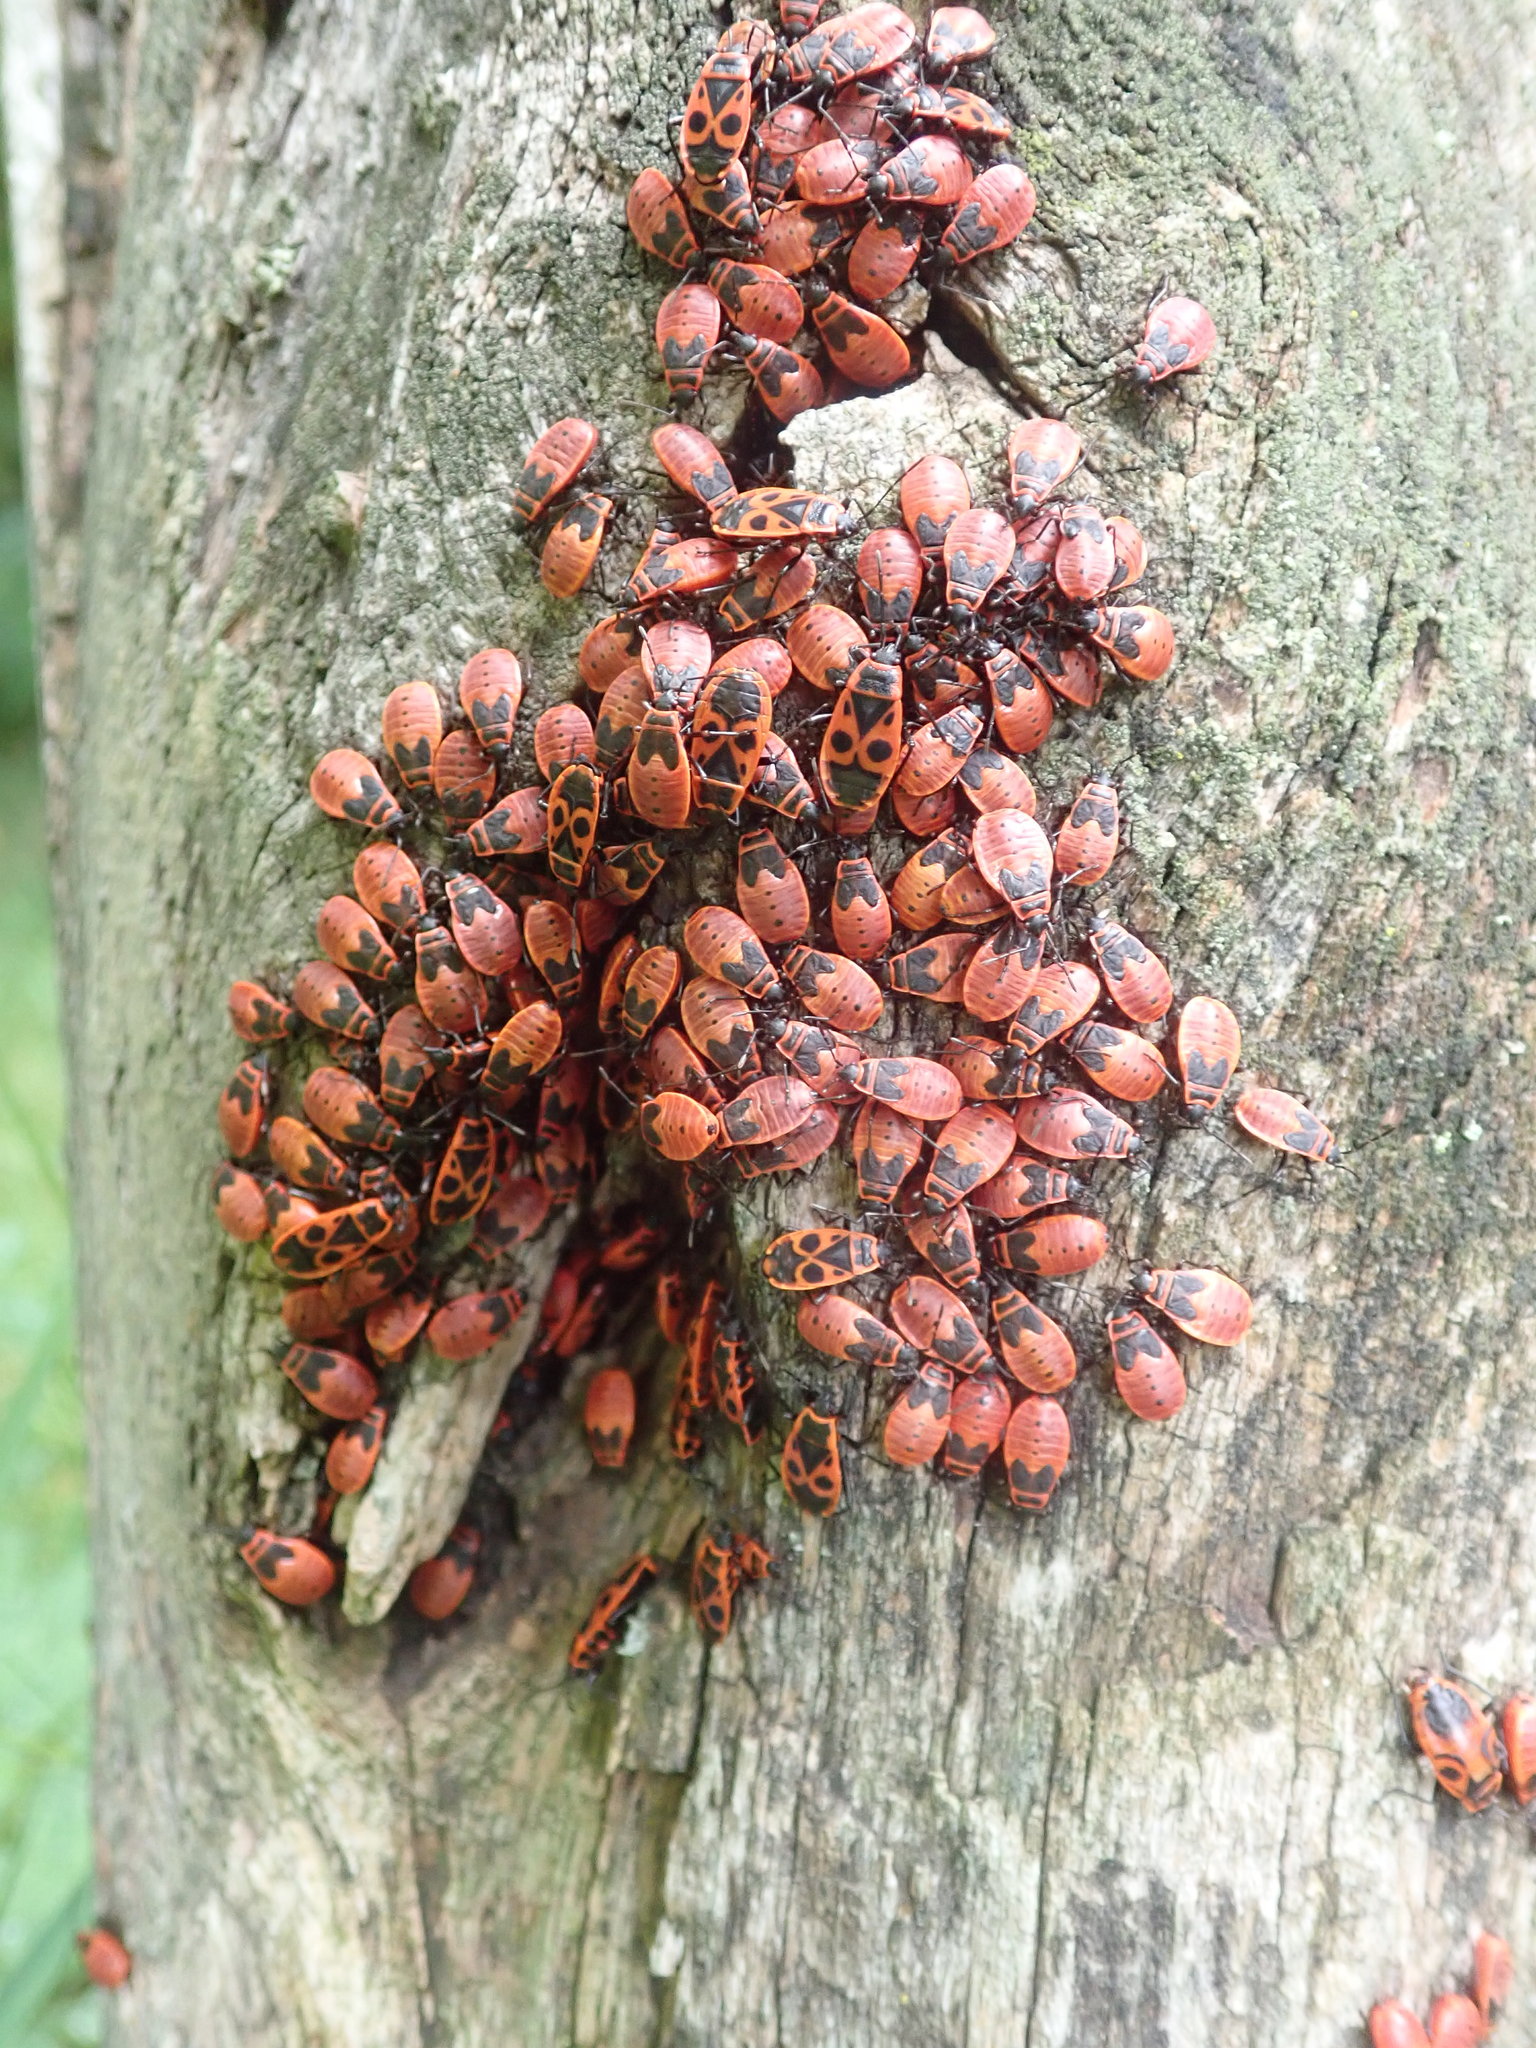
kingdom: Animalia
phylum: Arthropoda
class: Insecta
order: Hemiptera
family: Pyrrhocoridae
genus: Pyrrhocoris
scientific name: Pyrrhocoris apterus
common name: Firebug
